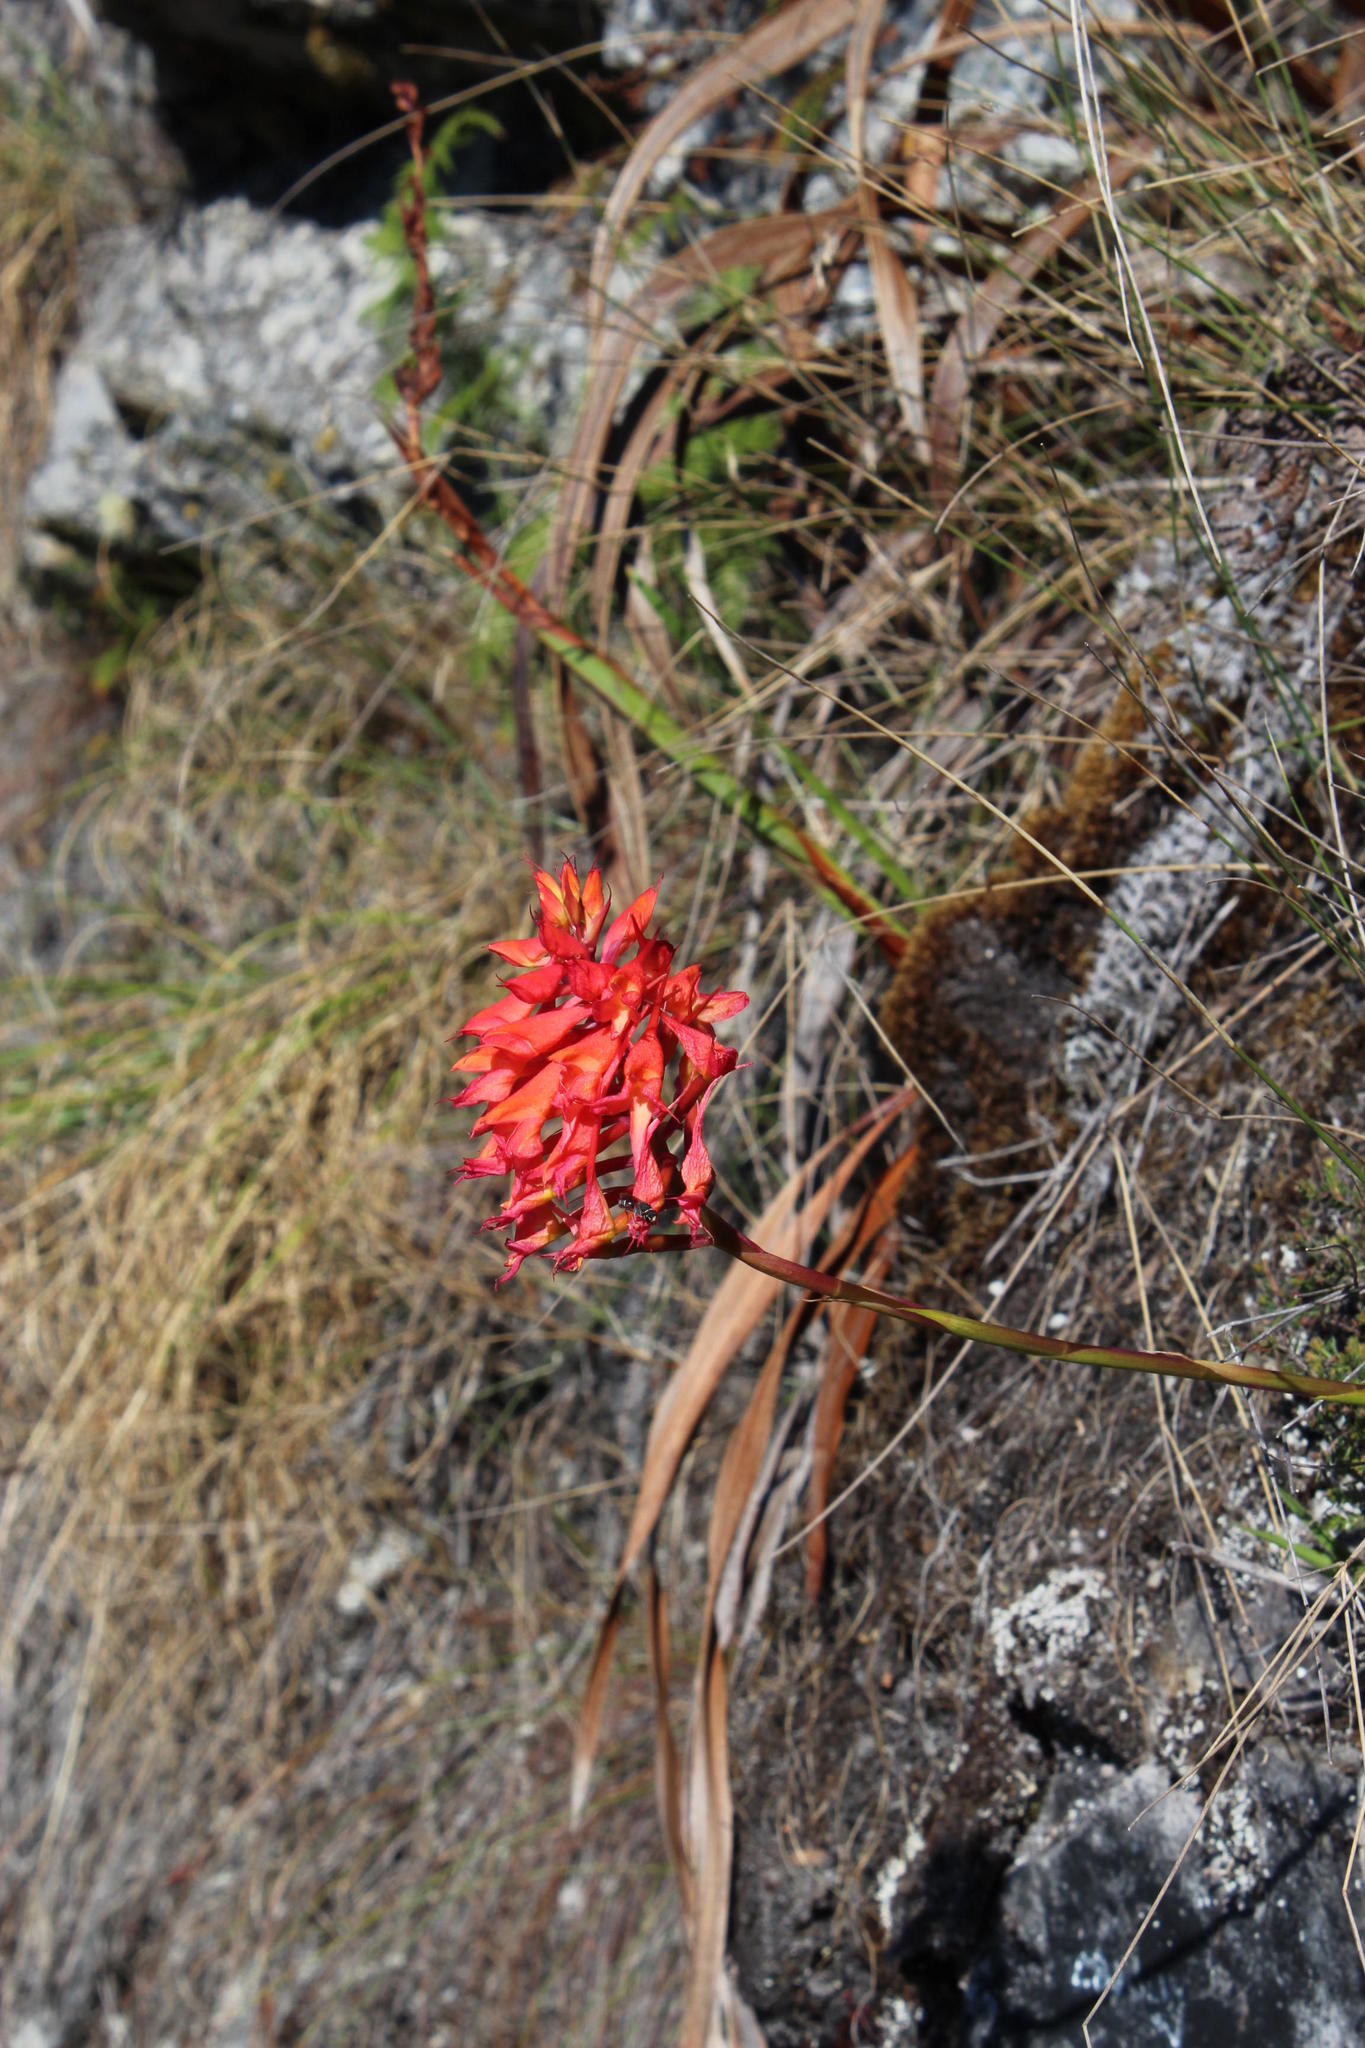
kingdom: Plantae
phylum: Tracheophyta
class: Liliopsida
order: Asparagales
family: Orchidaceae
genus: Disa
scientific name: Disa ferruginea
